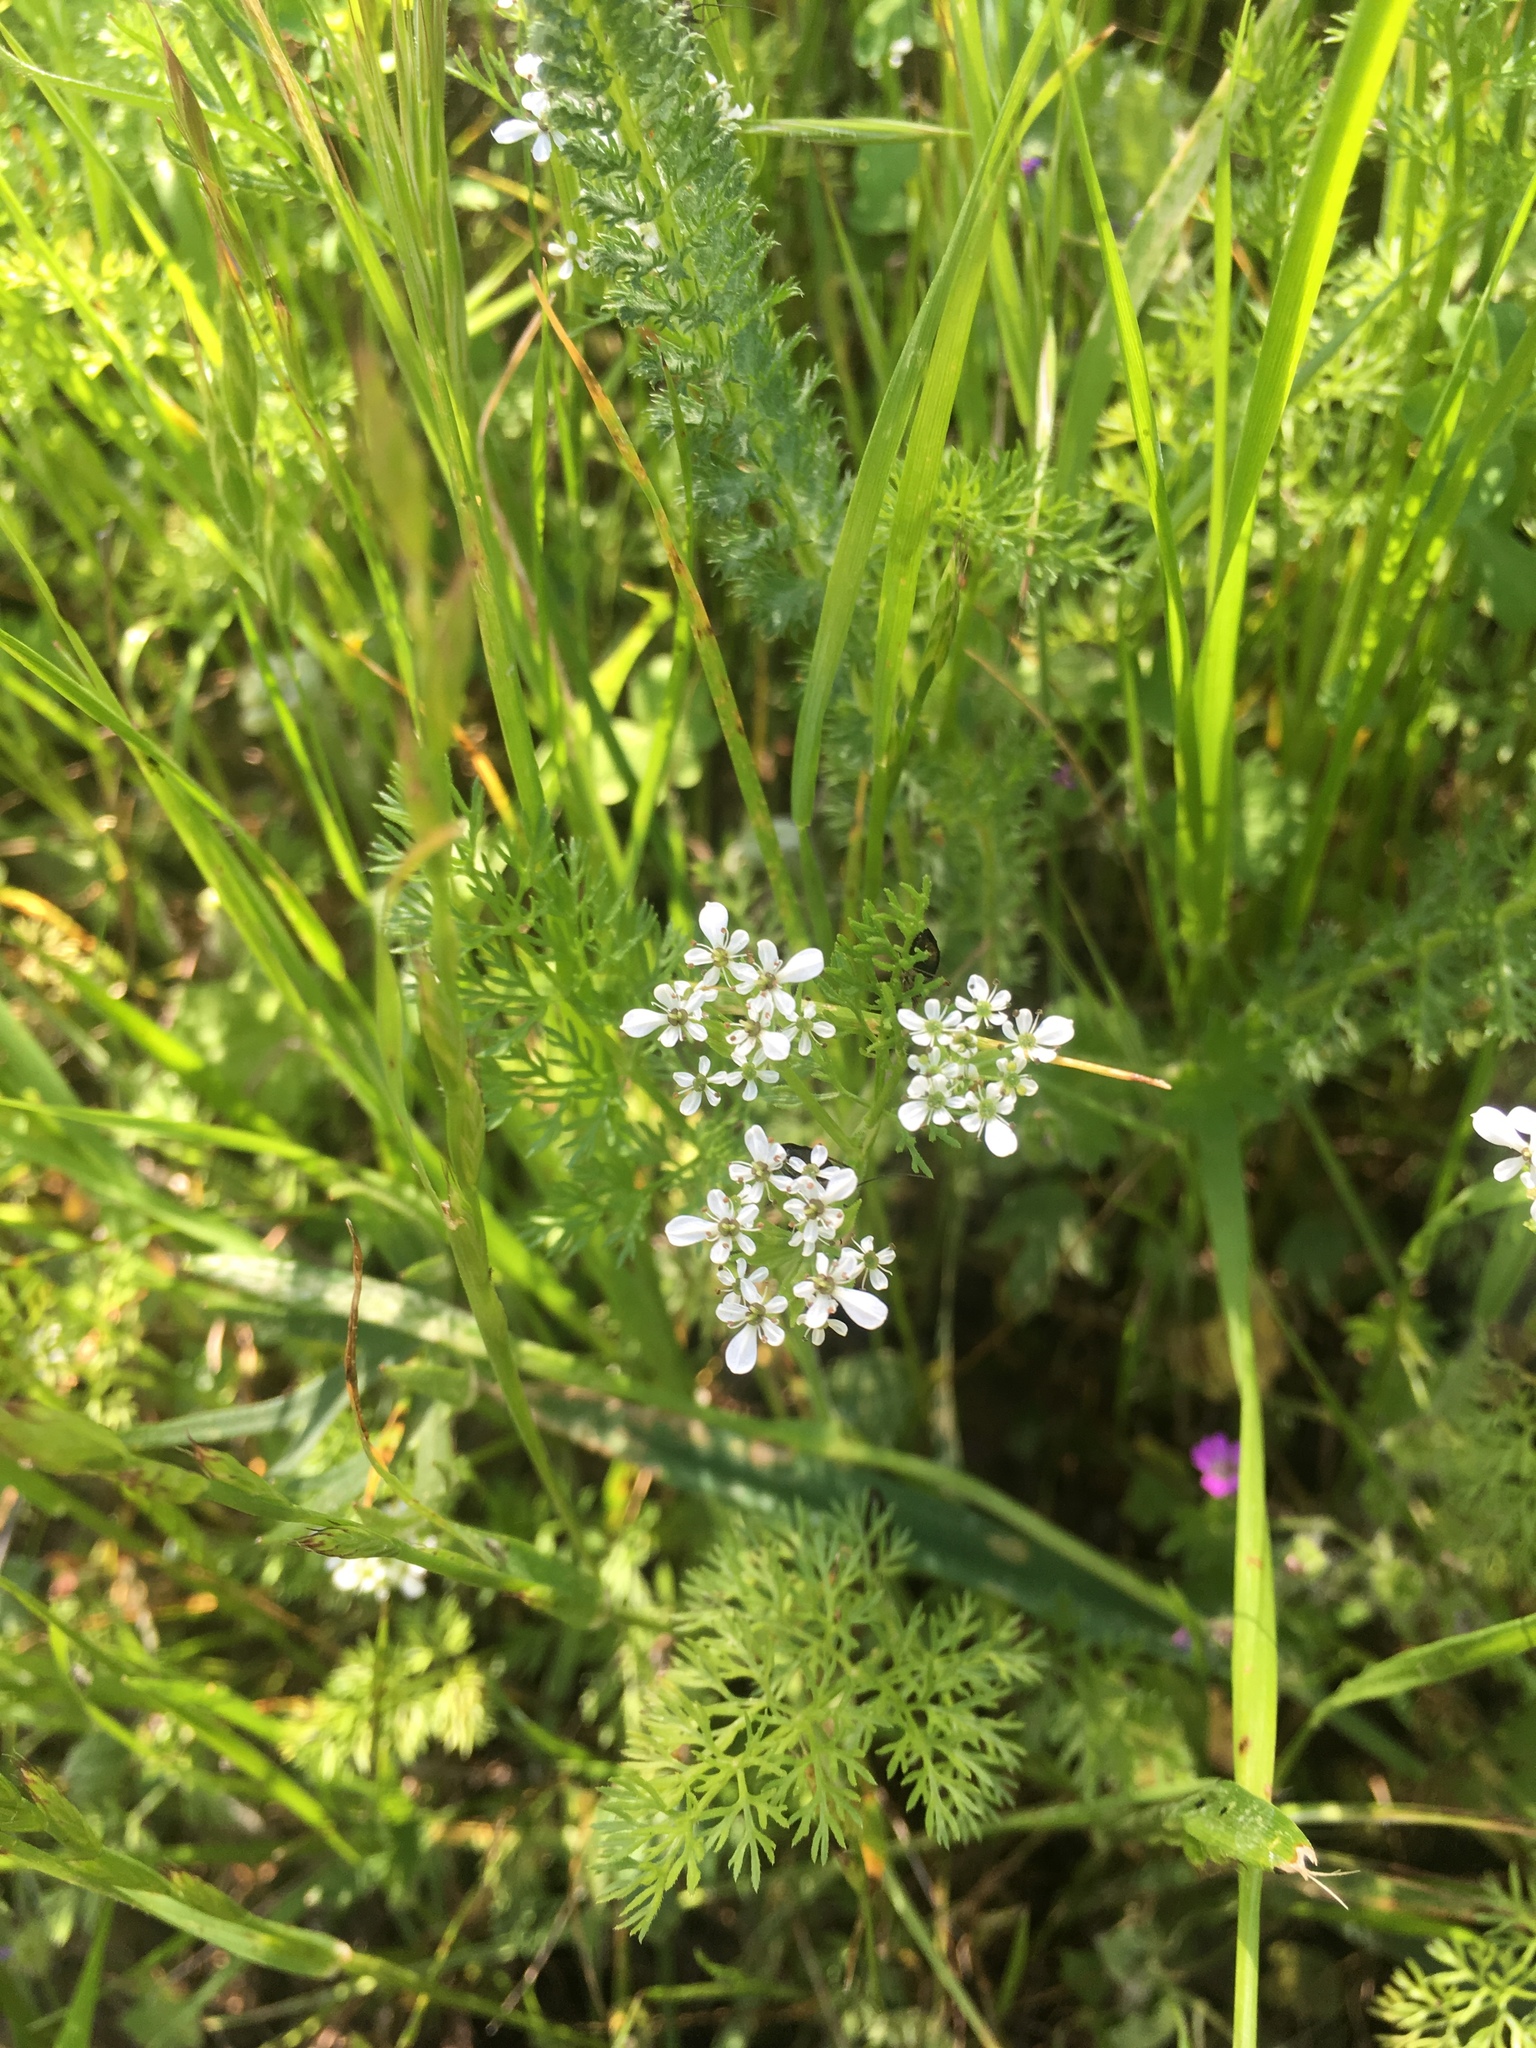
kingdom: Plantae
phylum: Tracheophyta
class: Magnoliopsida
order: Apiales
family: Apiaceae
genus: Scandix
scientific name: Scandix pecten-veneris
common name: Shepherd's-needle
